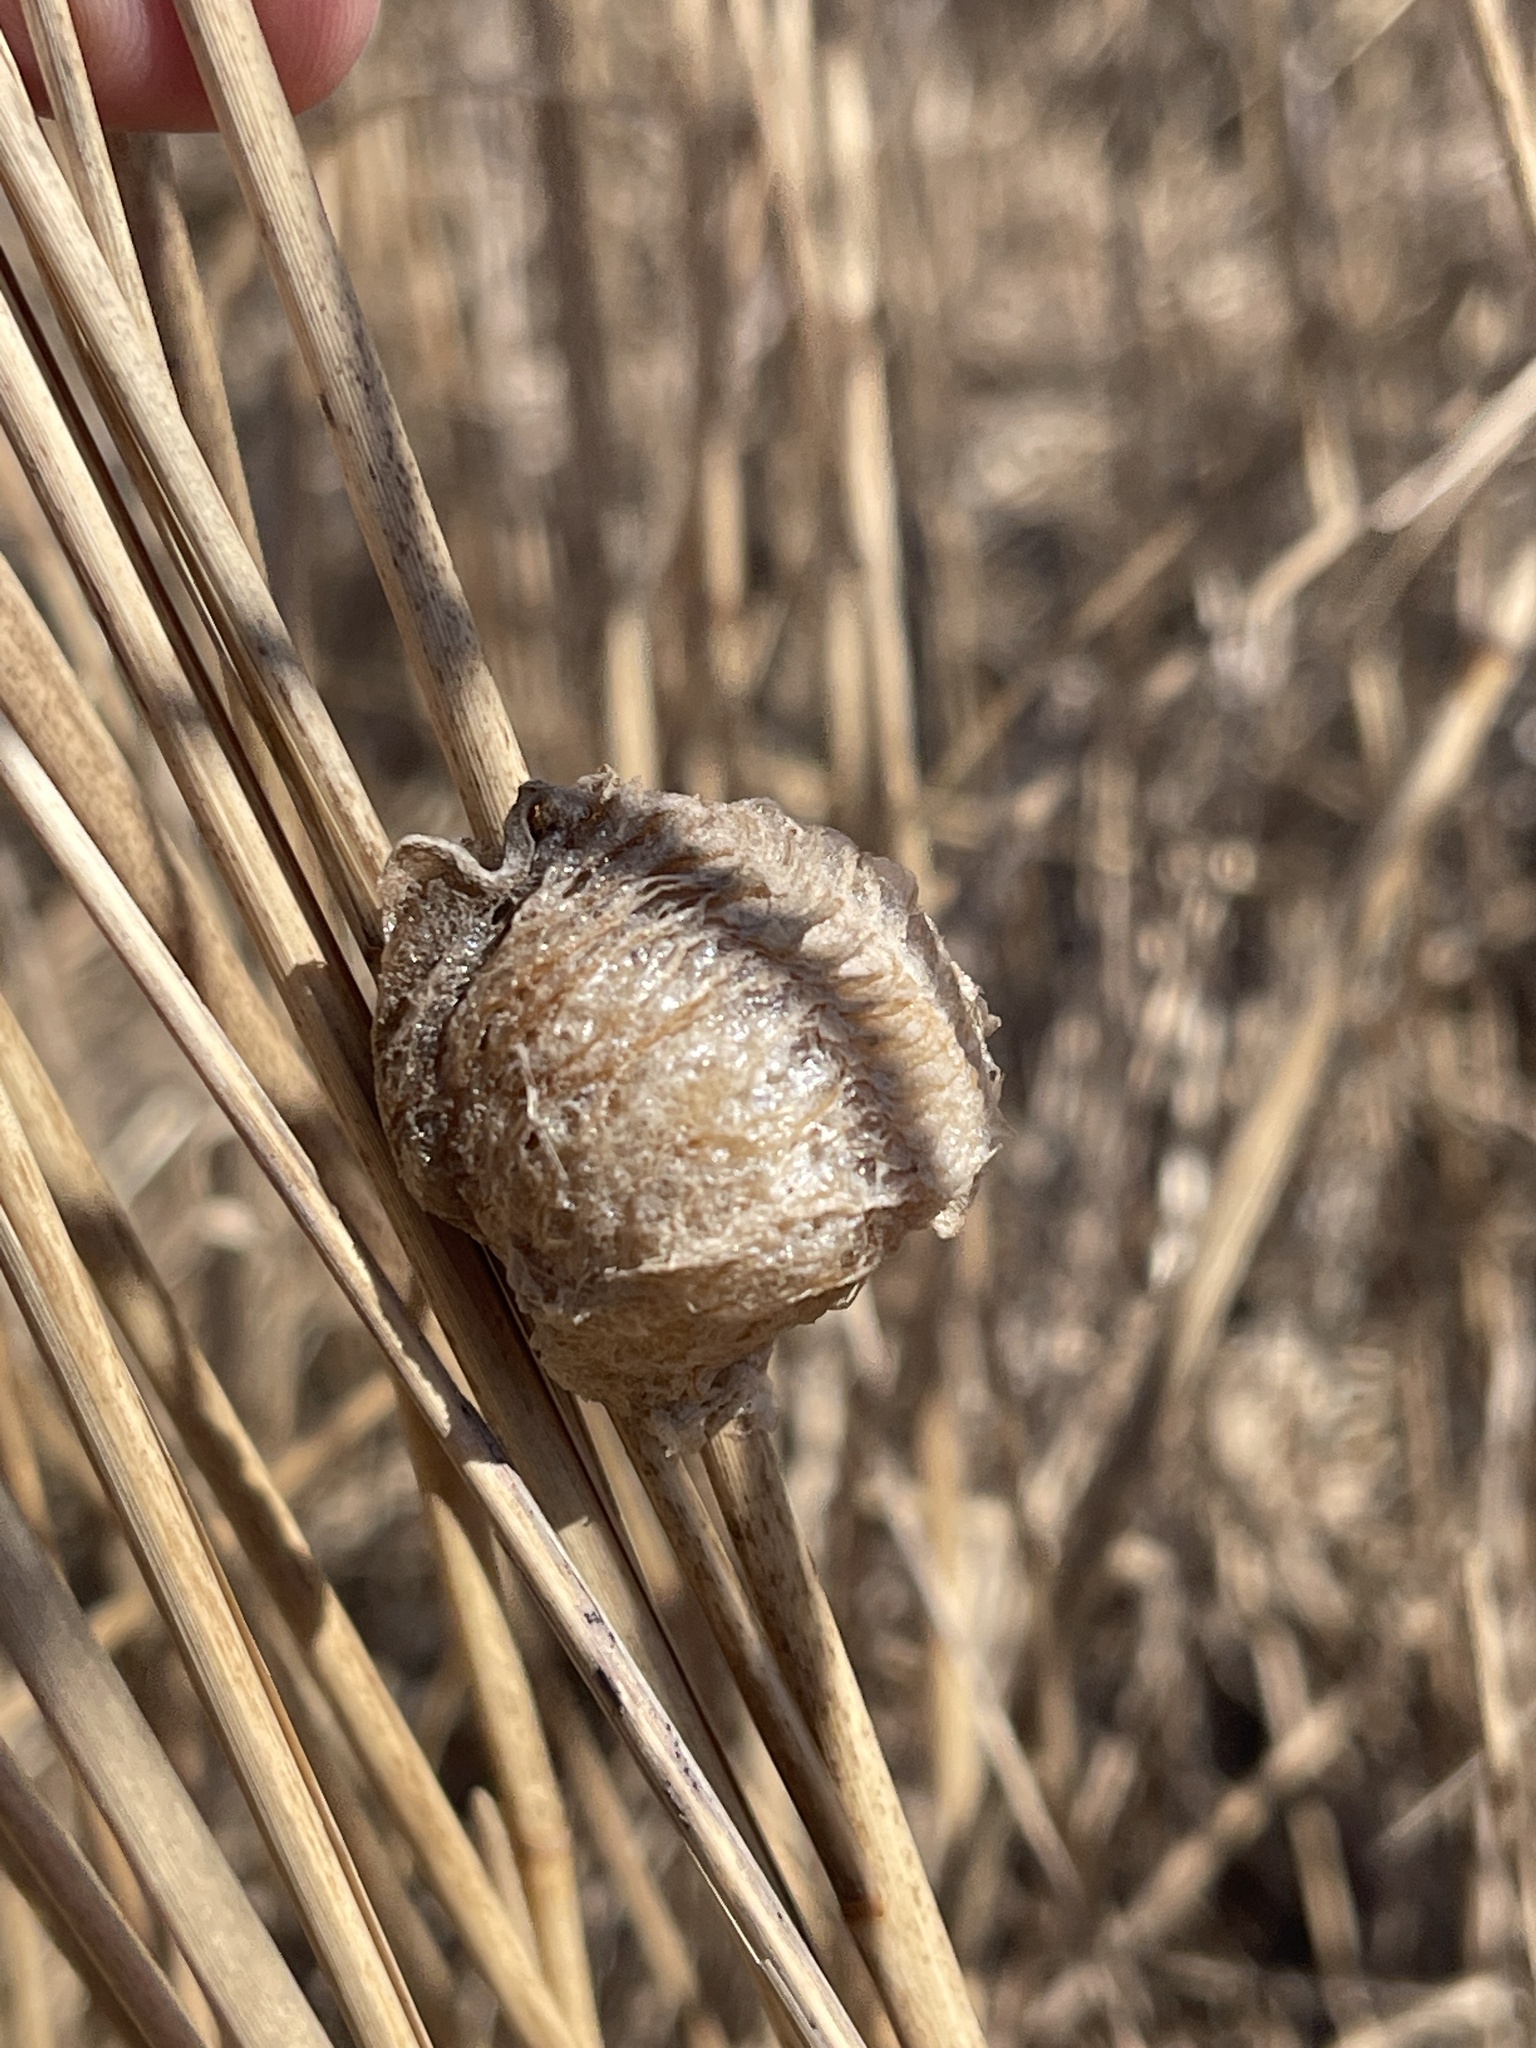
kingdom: Animalia
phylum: Arthropoda
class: Insecta
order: Mantodea
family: Mantidae
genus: Tenodera
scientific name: Tenodera sinensis
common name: Chinese mantis
